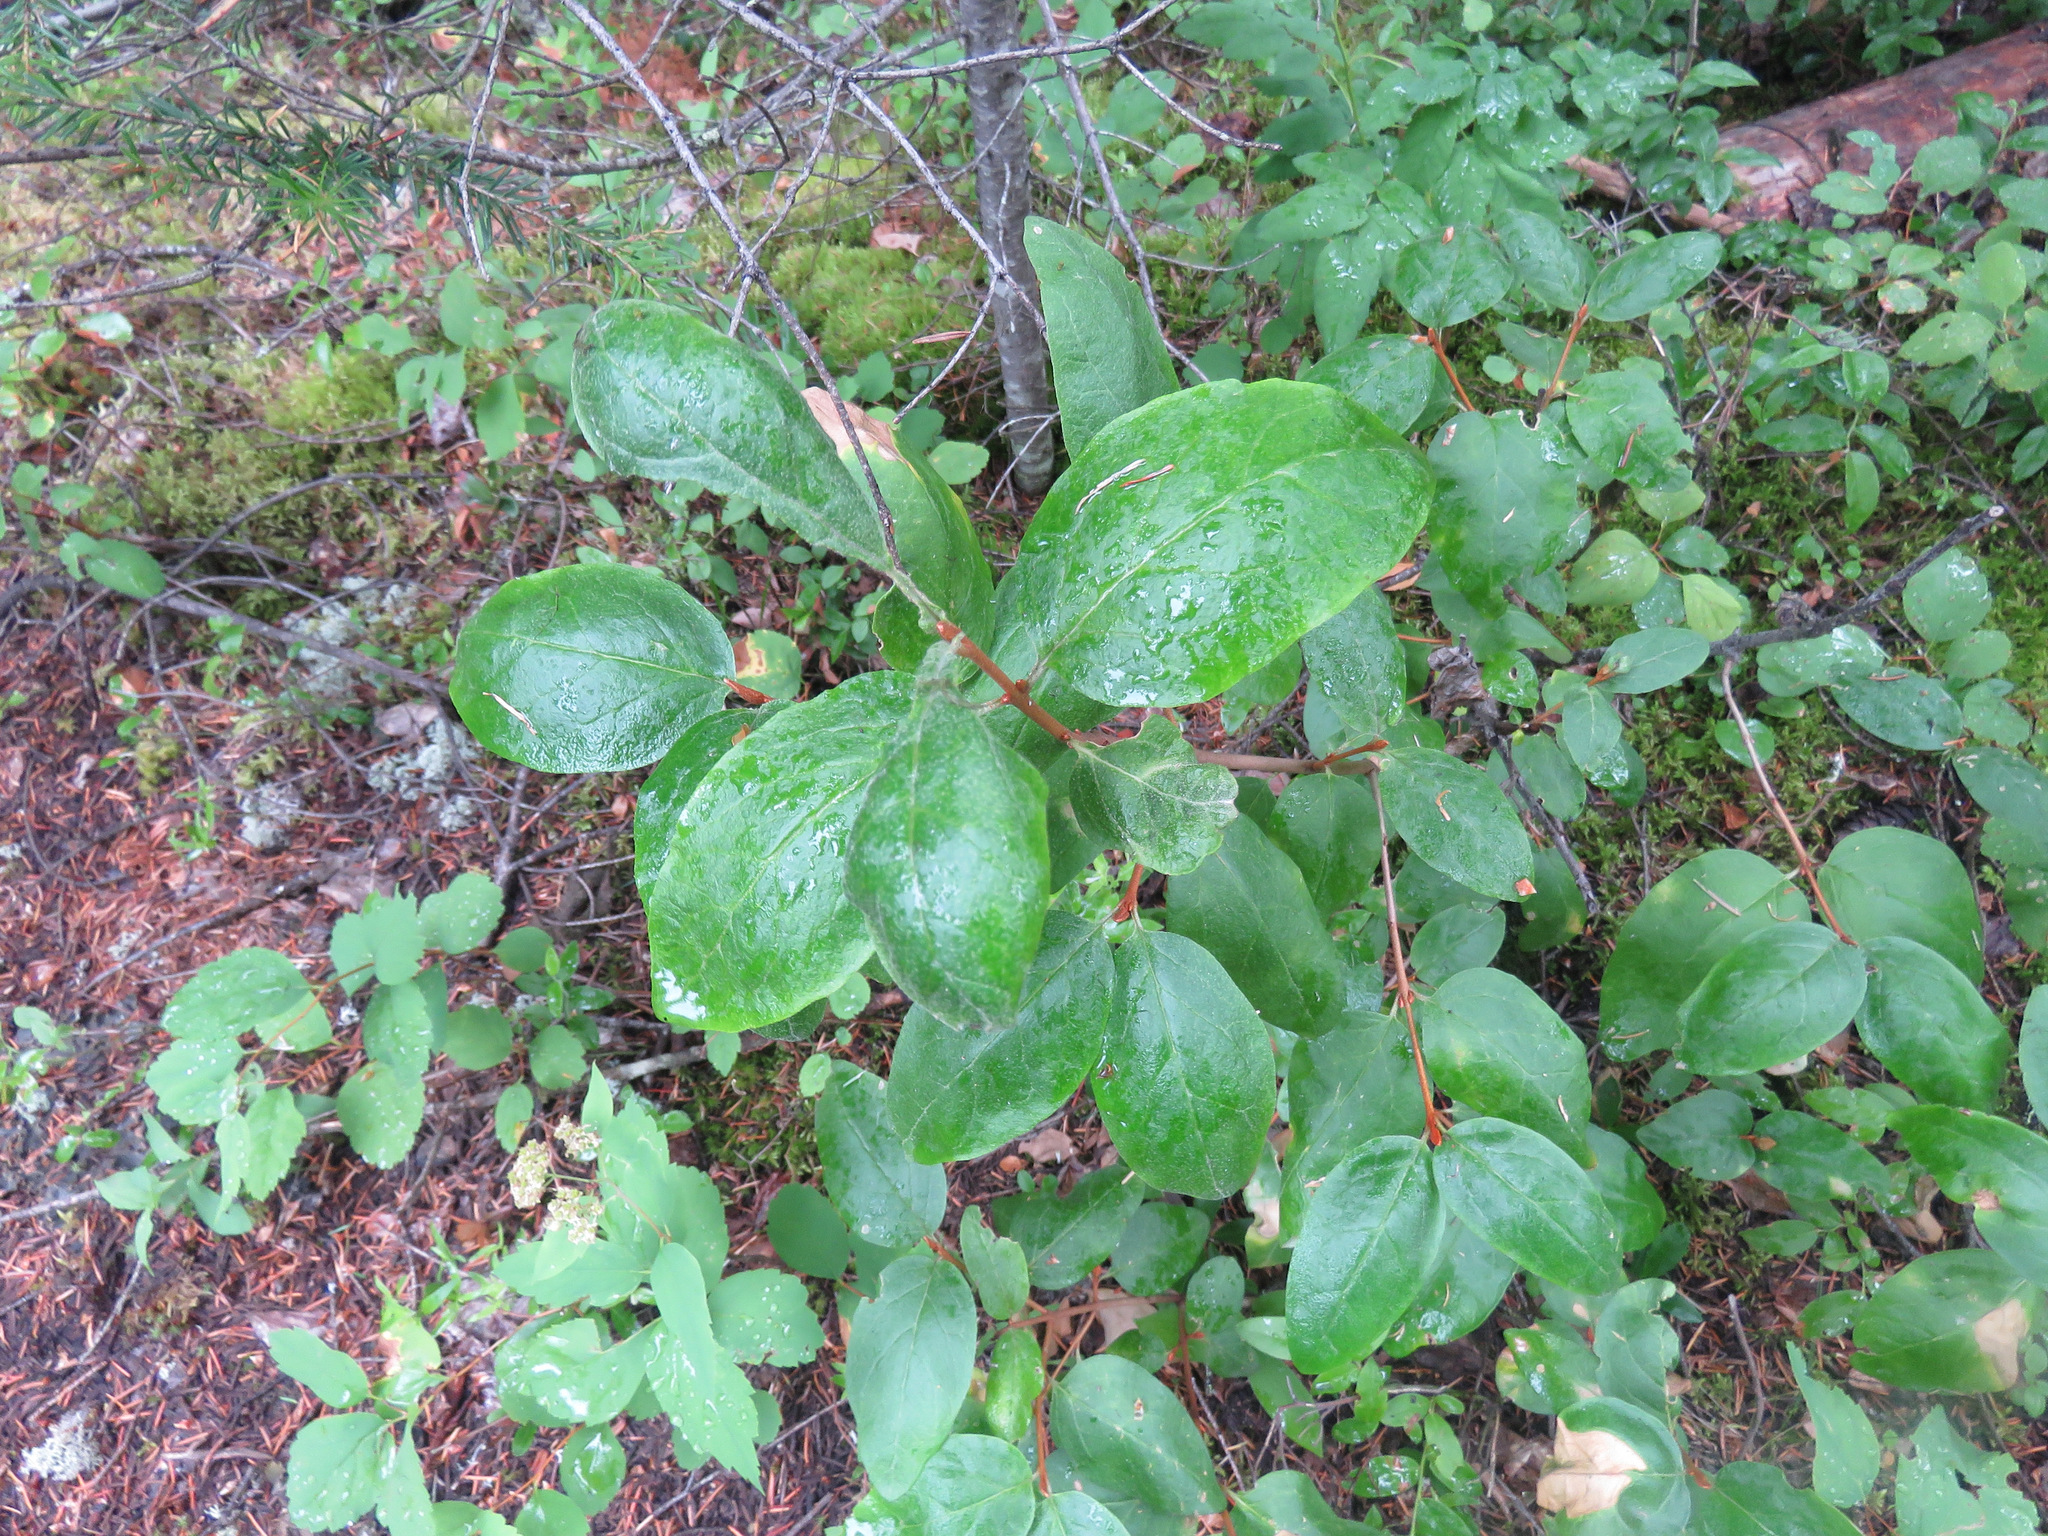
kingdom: Plantae
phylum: Tracheophyta
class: Magnoliopsida
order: Rosales
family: Elaeagnaceae
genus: Shepherdia
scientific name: Shepherdia canadensis
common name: Soapberry
